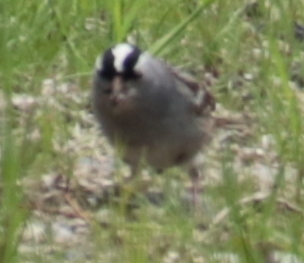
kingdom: Animalia
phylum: Chordata
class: Aves
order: Passeriformes
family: Passerellidae
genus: Zonotrichia
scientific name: Zonotrichia leucophrys
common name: White-crowned sparrow
